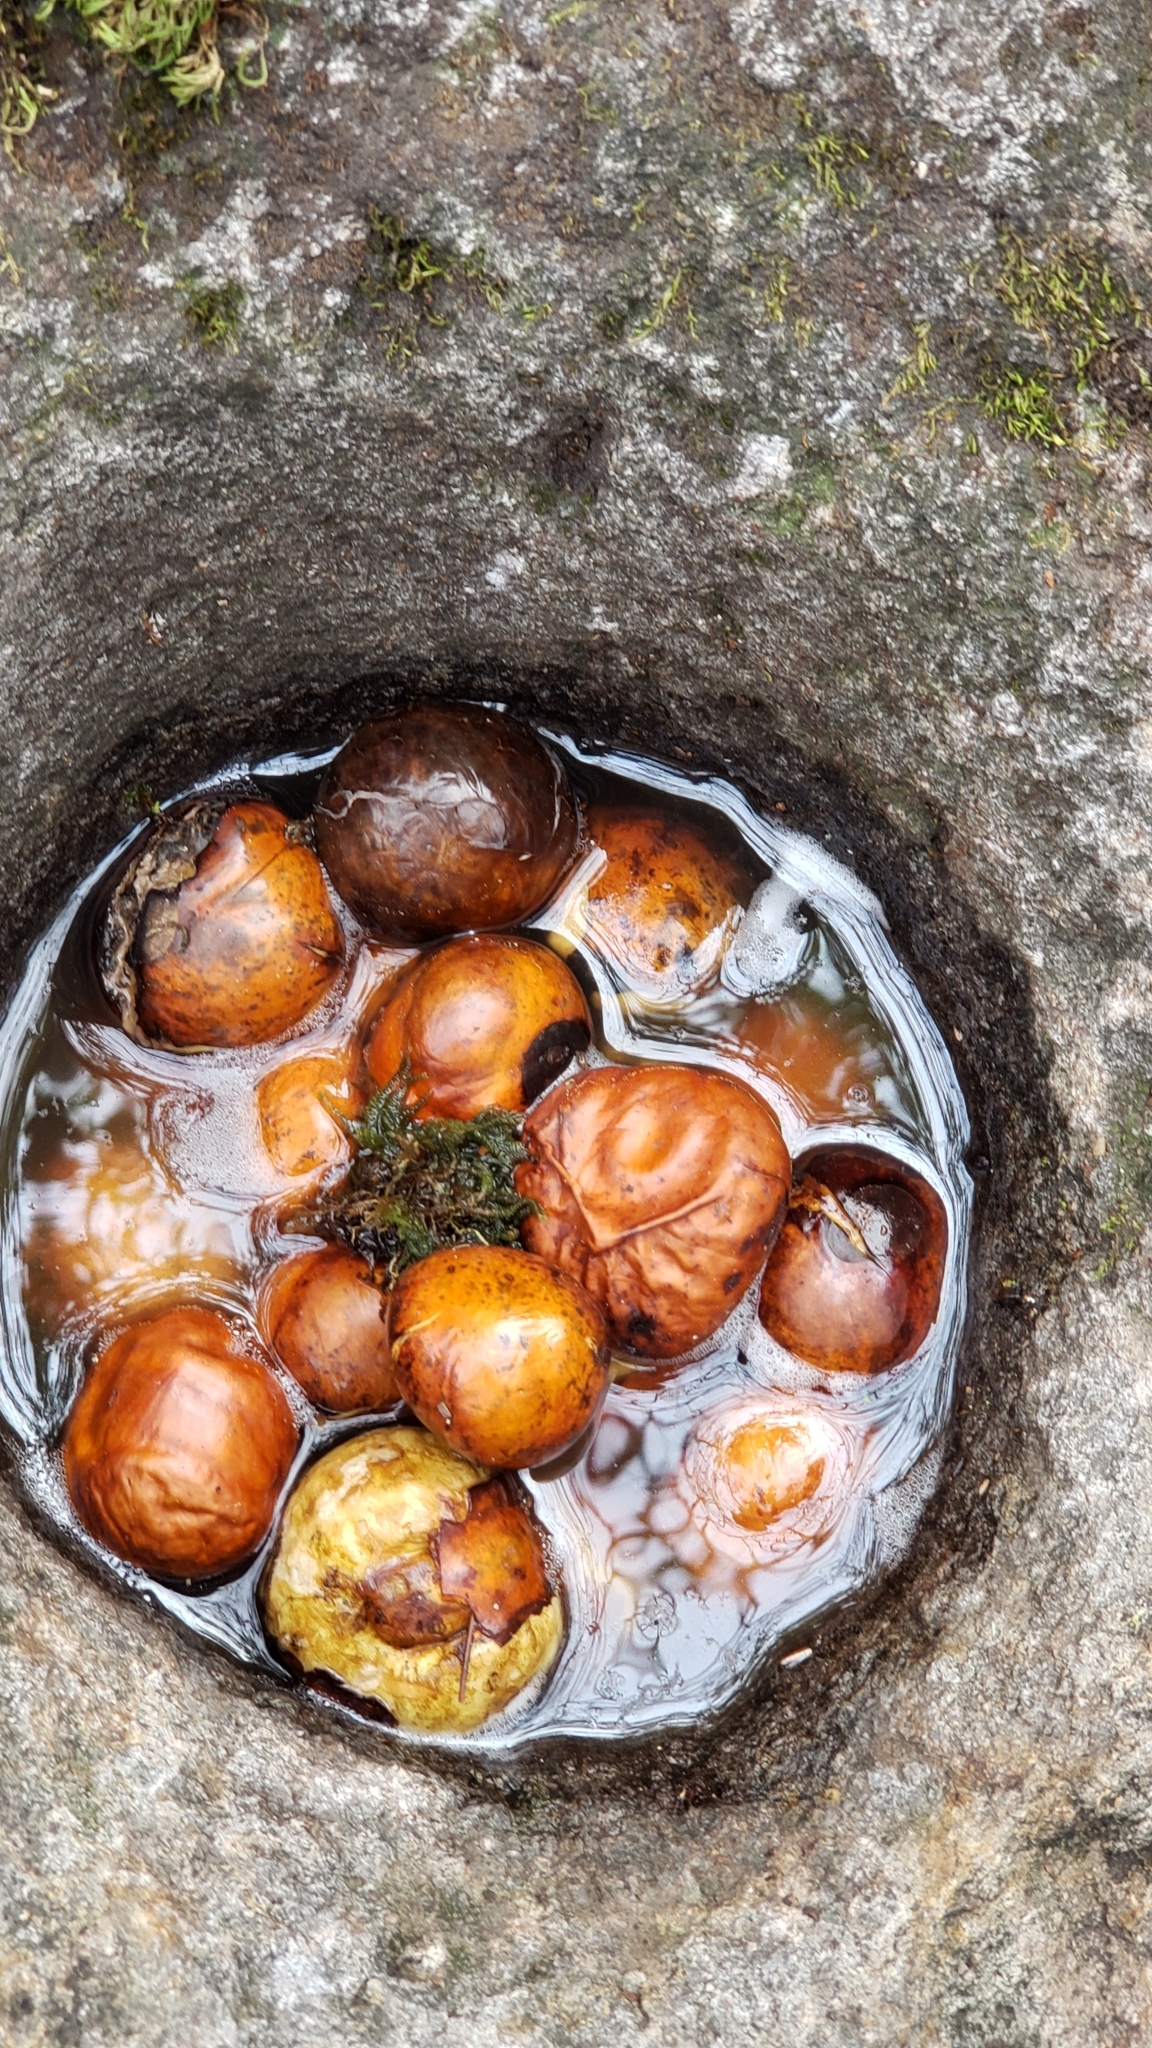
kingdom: Plantae
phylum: Tracheophyta
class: Magnoliopsida
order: Sapindales
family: Sapindaceae
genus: Aesculus
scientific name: Aesculus californica
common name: California buckeye
